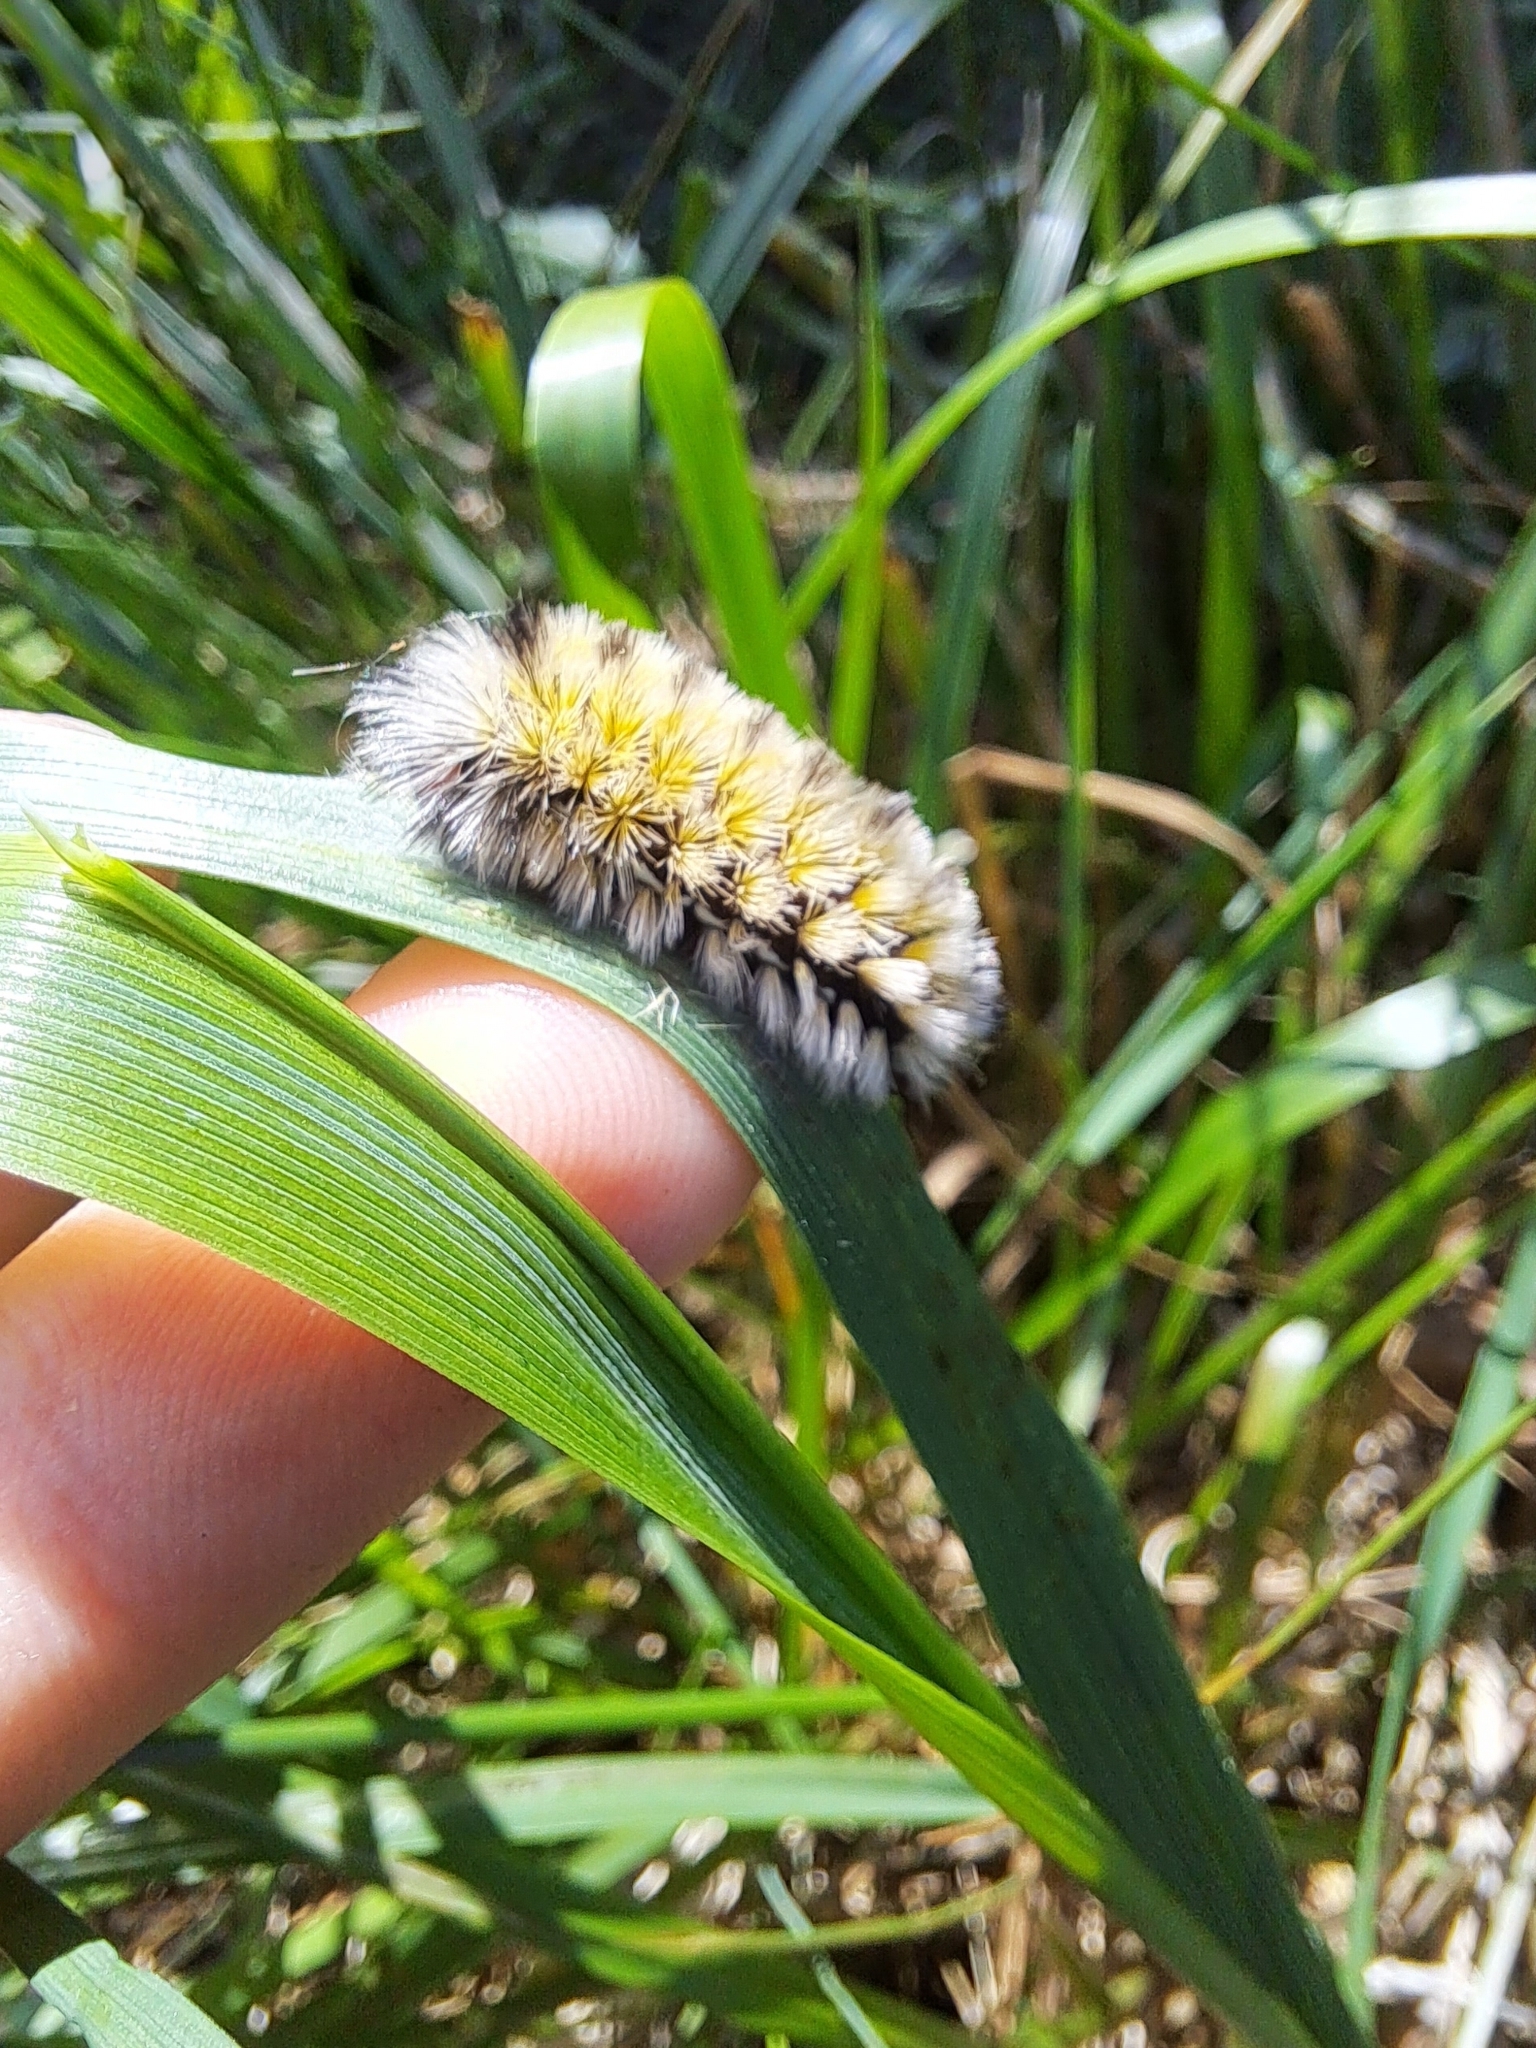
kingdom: Animalia
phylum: Arthropoda
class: Insecta
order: Lepidoptera
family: Erebidae
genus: Ctenucha
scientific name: Ctenucha virginica
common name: Virginia ctenucha moth
